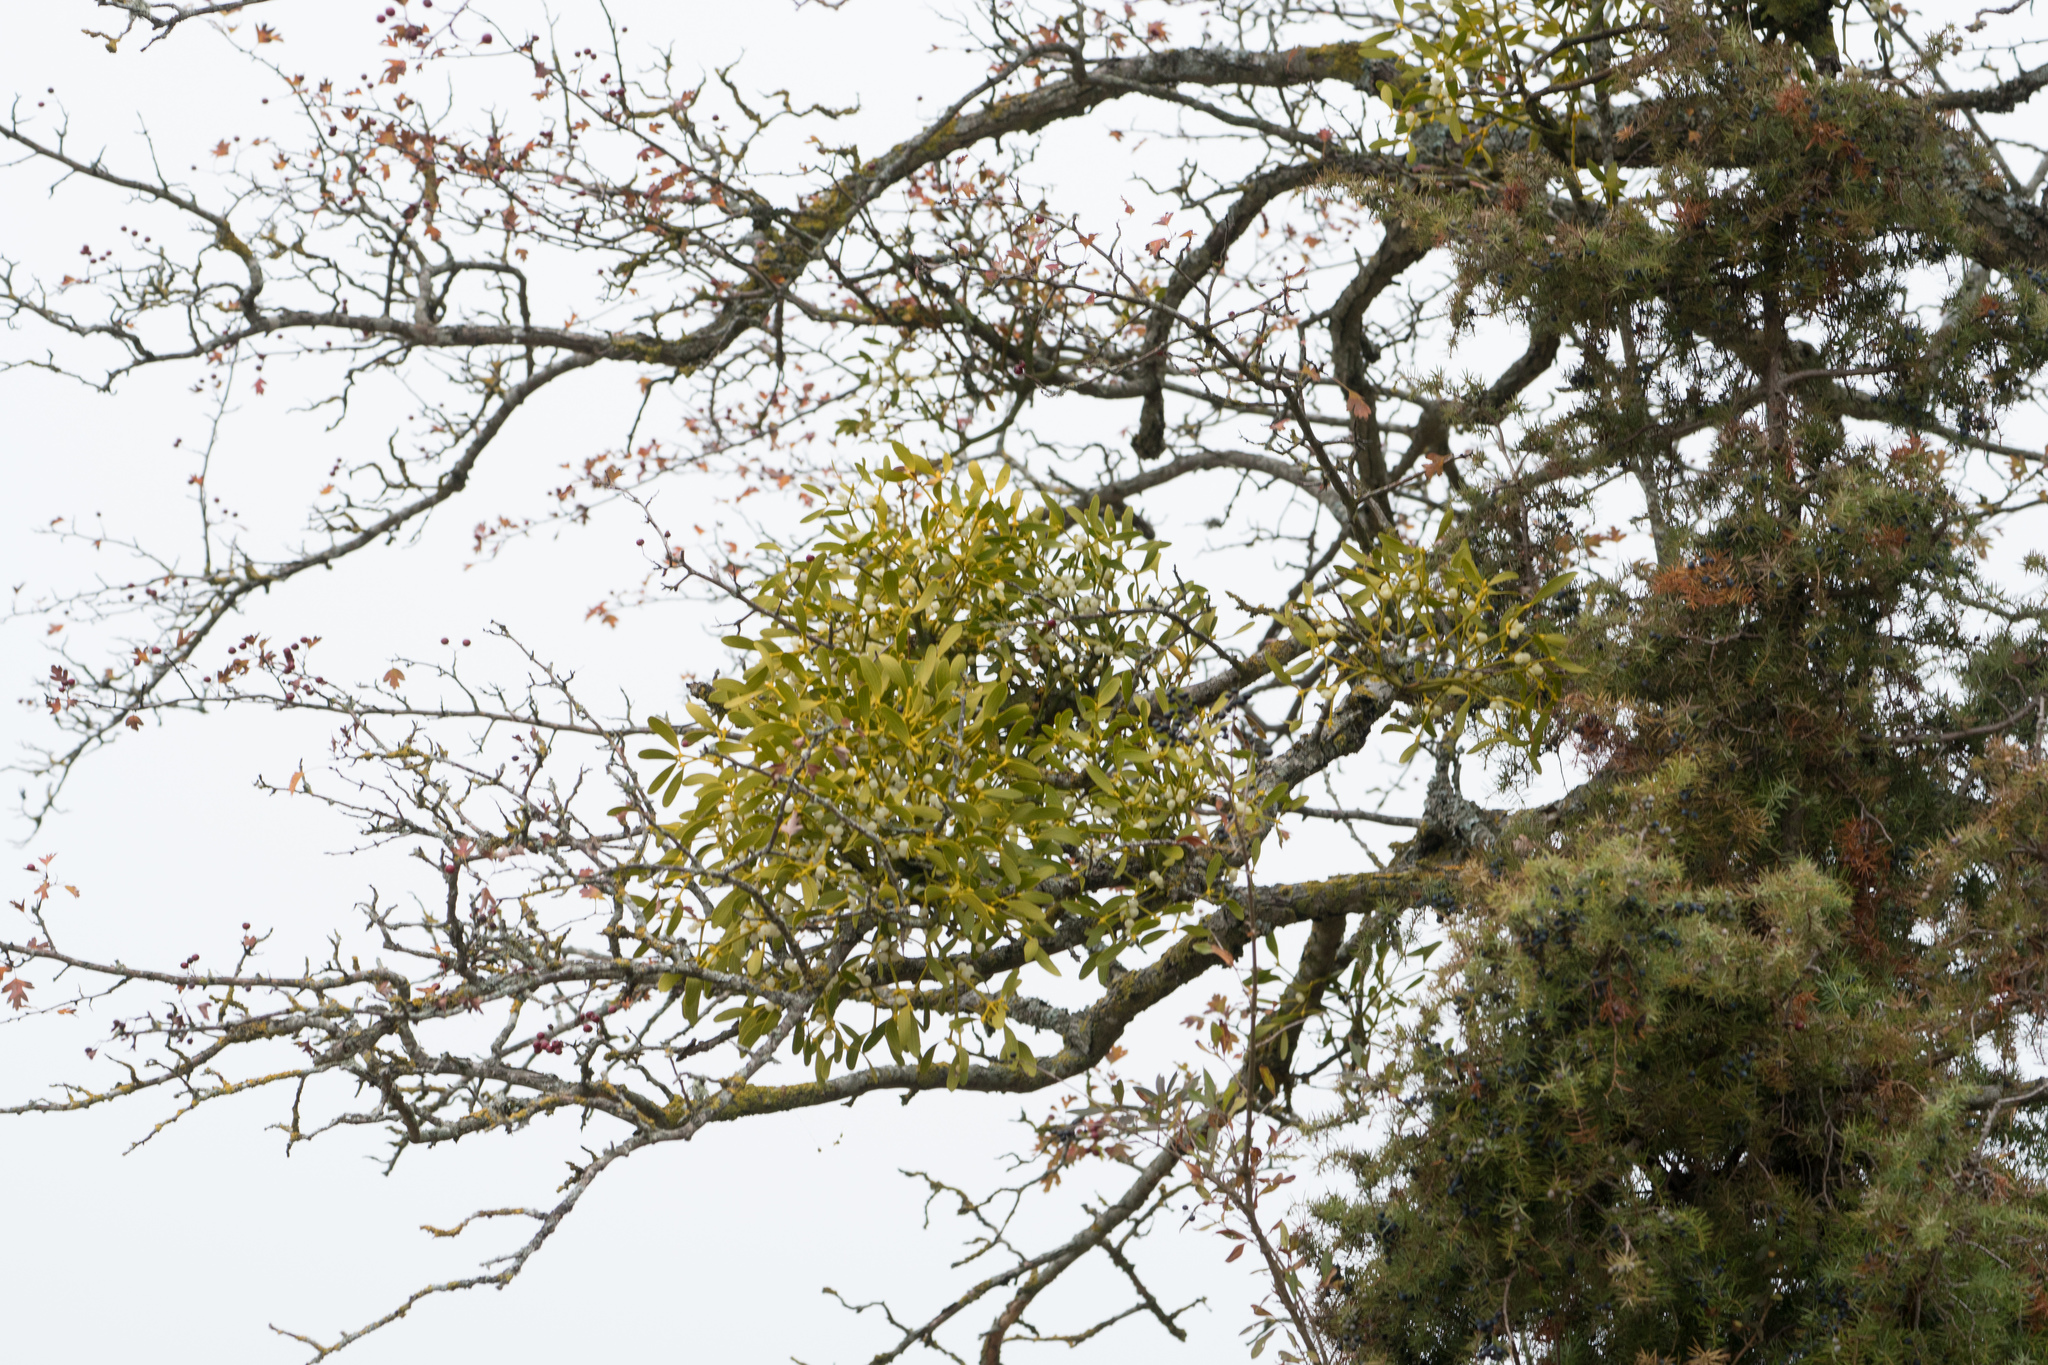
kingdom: Plantae
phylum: Tracheophyta
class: Magnoliopsida
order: Santalales
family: Viscaceae
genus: Viscum
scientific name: Viscum album
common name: Mistletoe
